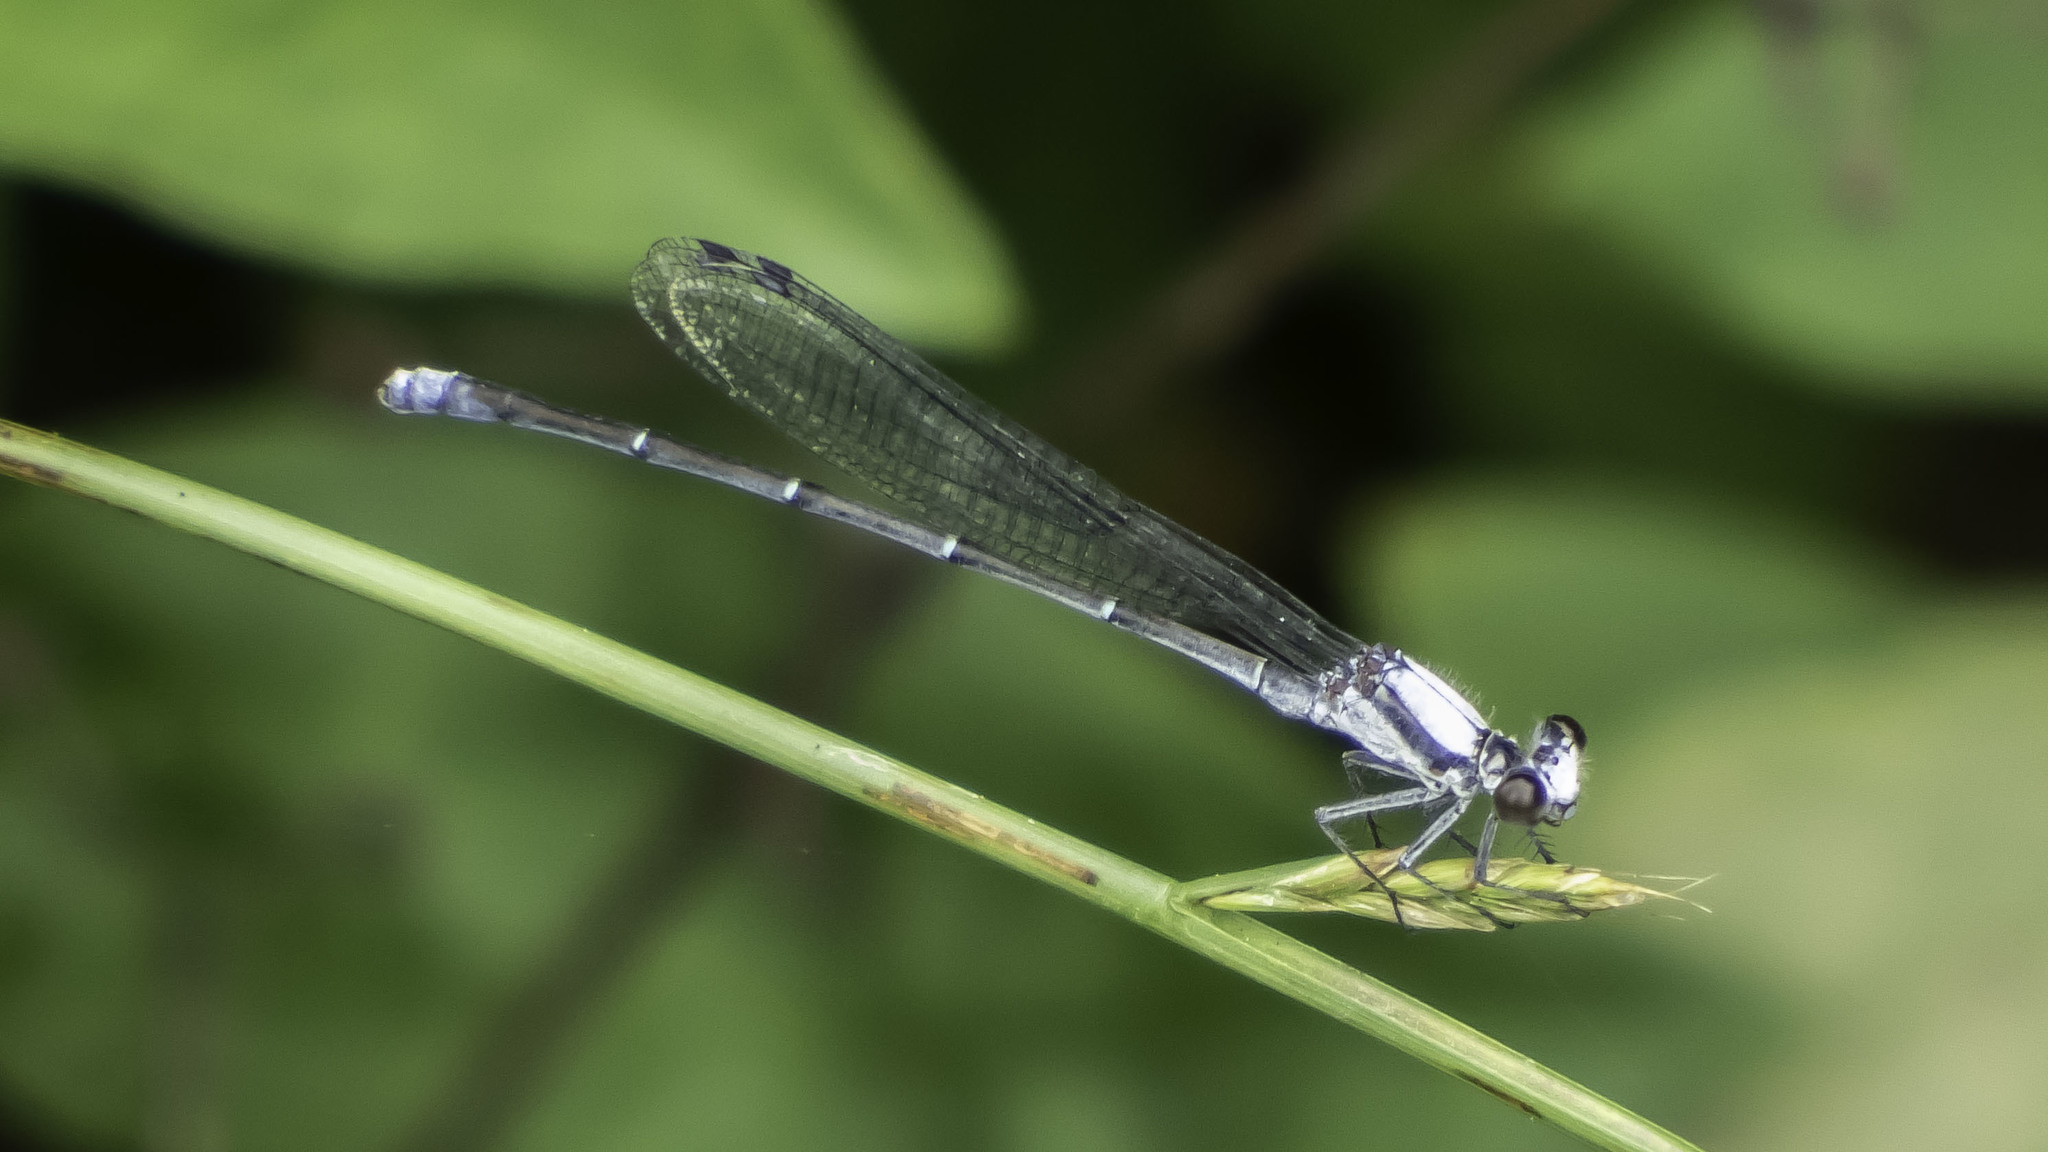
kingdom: Animalia
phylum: Arthropoda
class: Insecta
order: Odonata
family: Coenagrionidae
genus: Argia
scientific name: Argia moesta
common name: Powdered dancer
